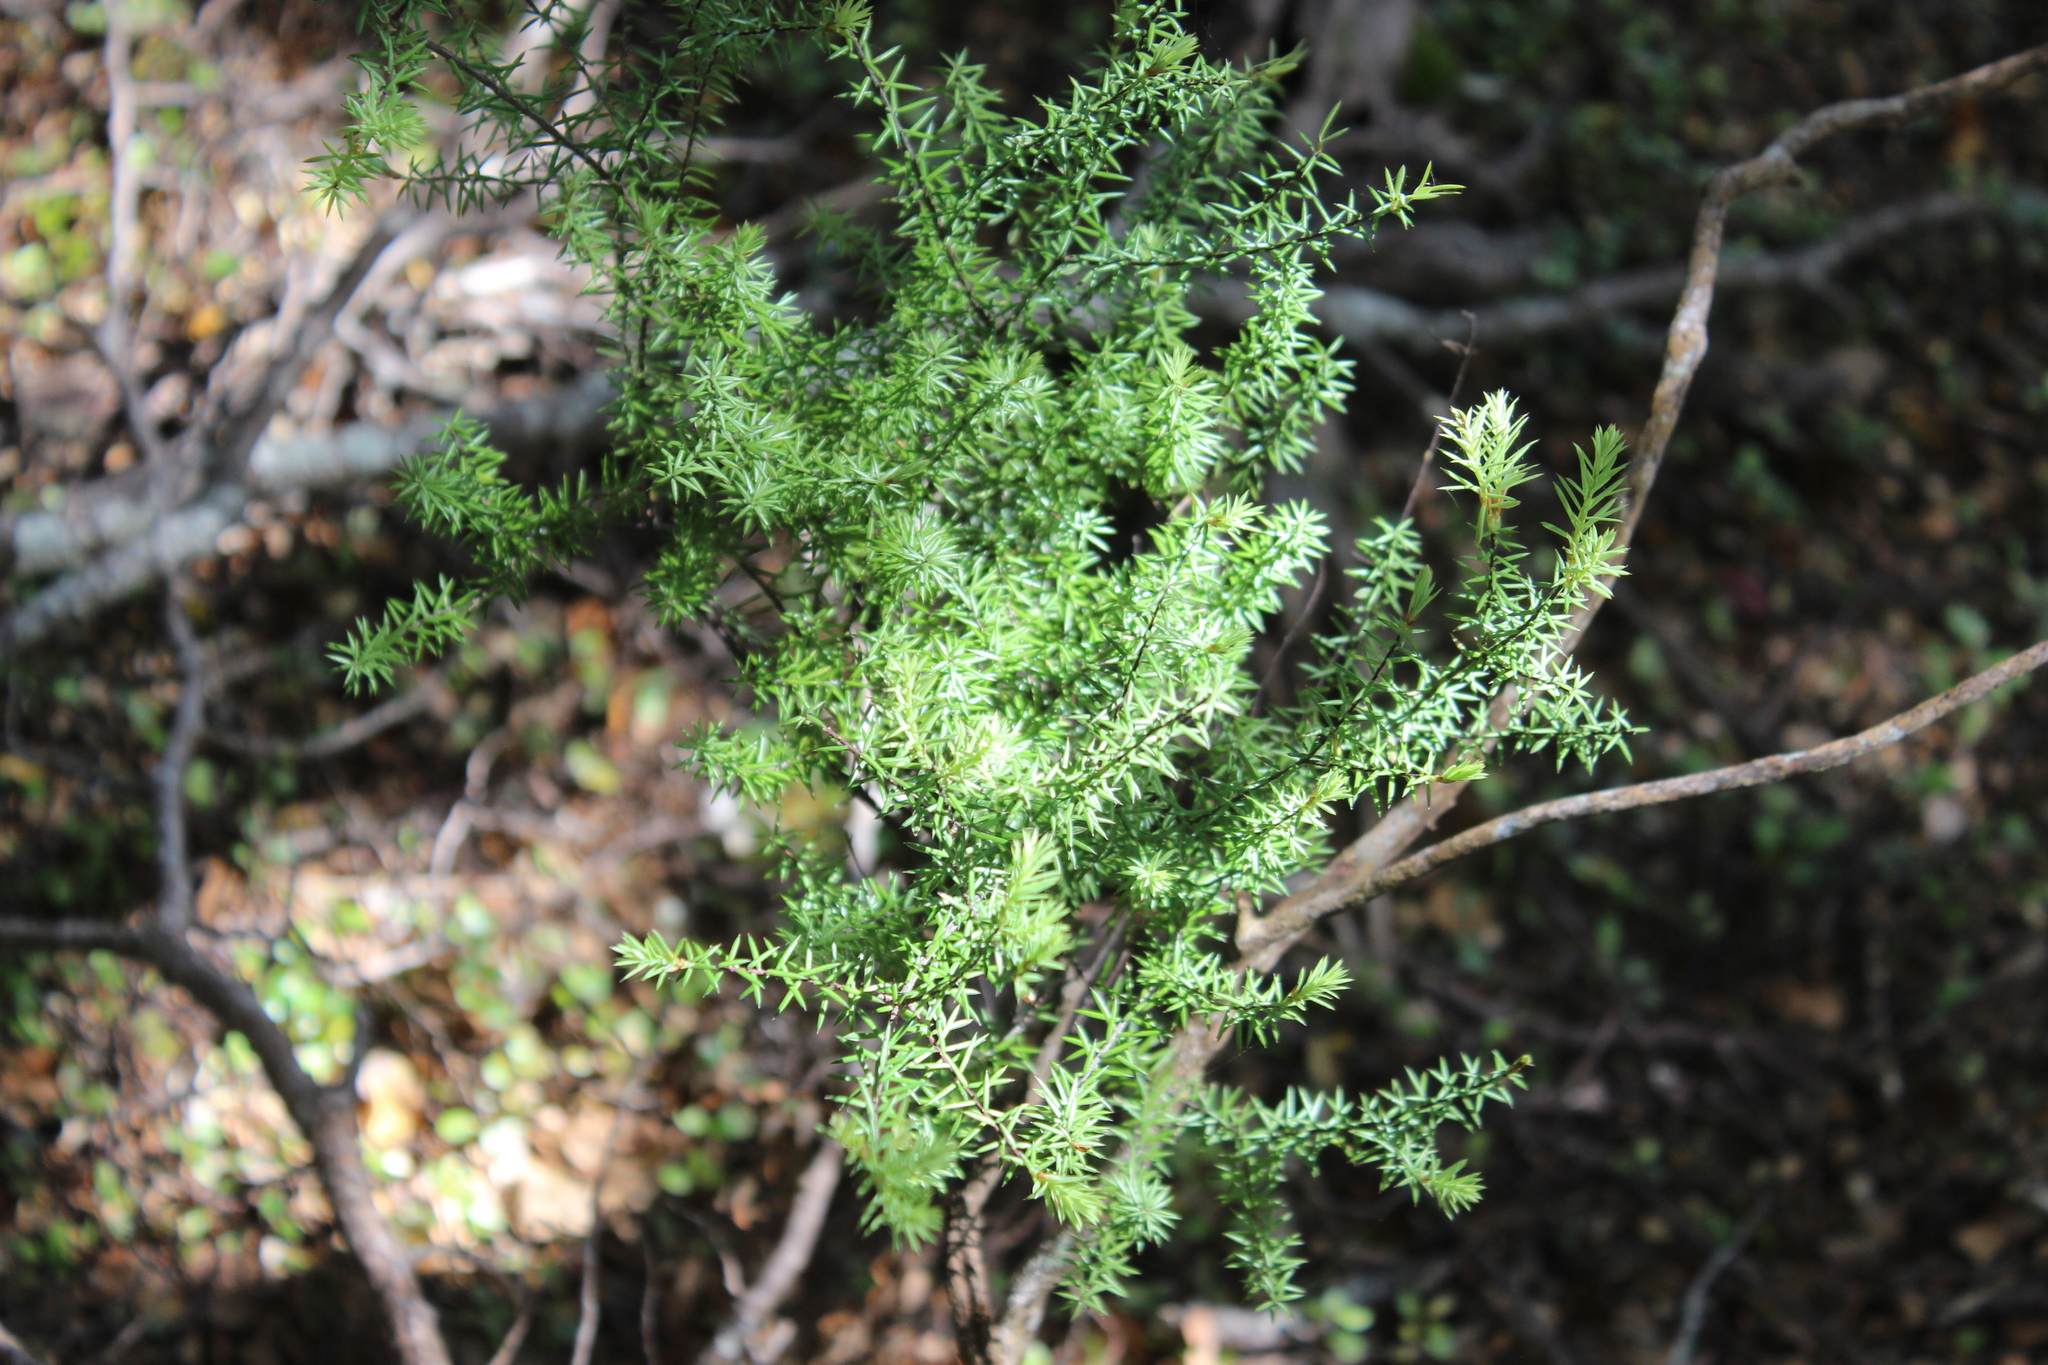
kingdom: Plantae
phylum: Tracheophyta
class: Magnoliopsida
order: Ericales
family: Ericaceae
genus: Leptecophylla
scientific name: Leptecophylla juniperina
